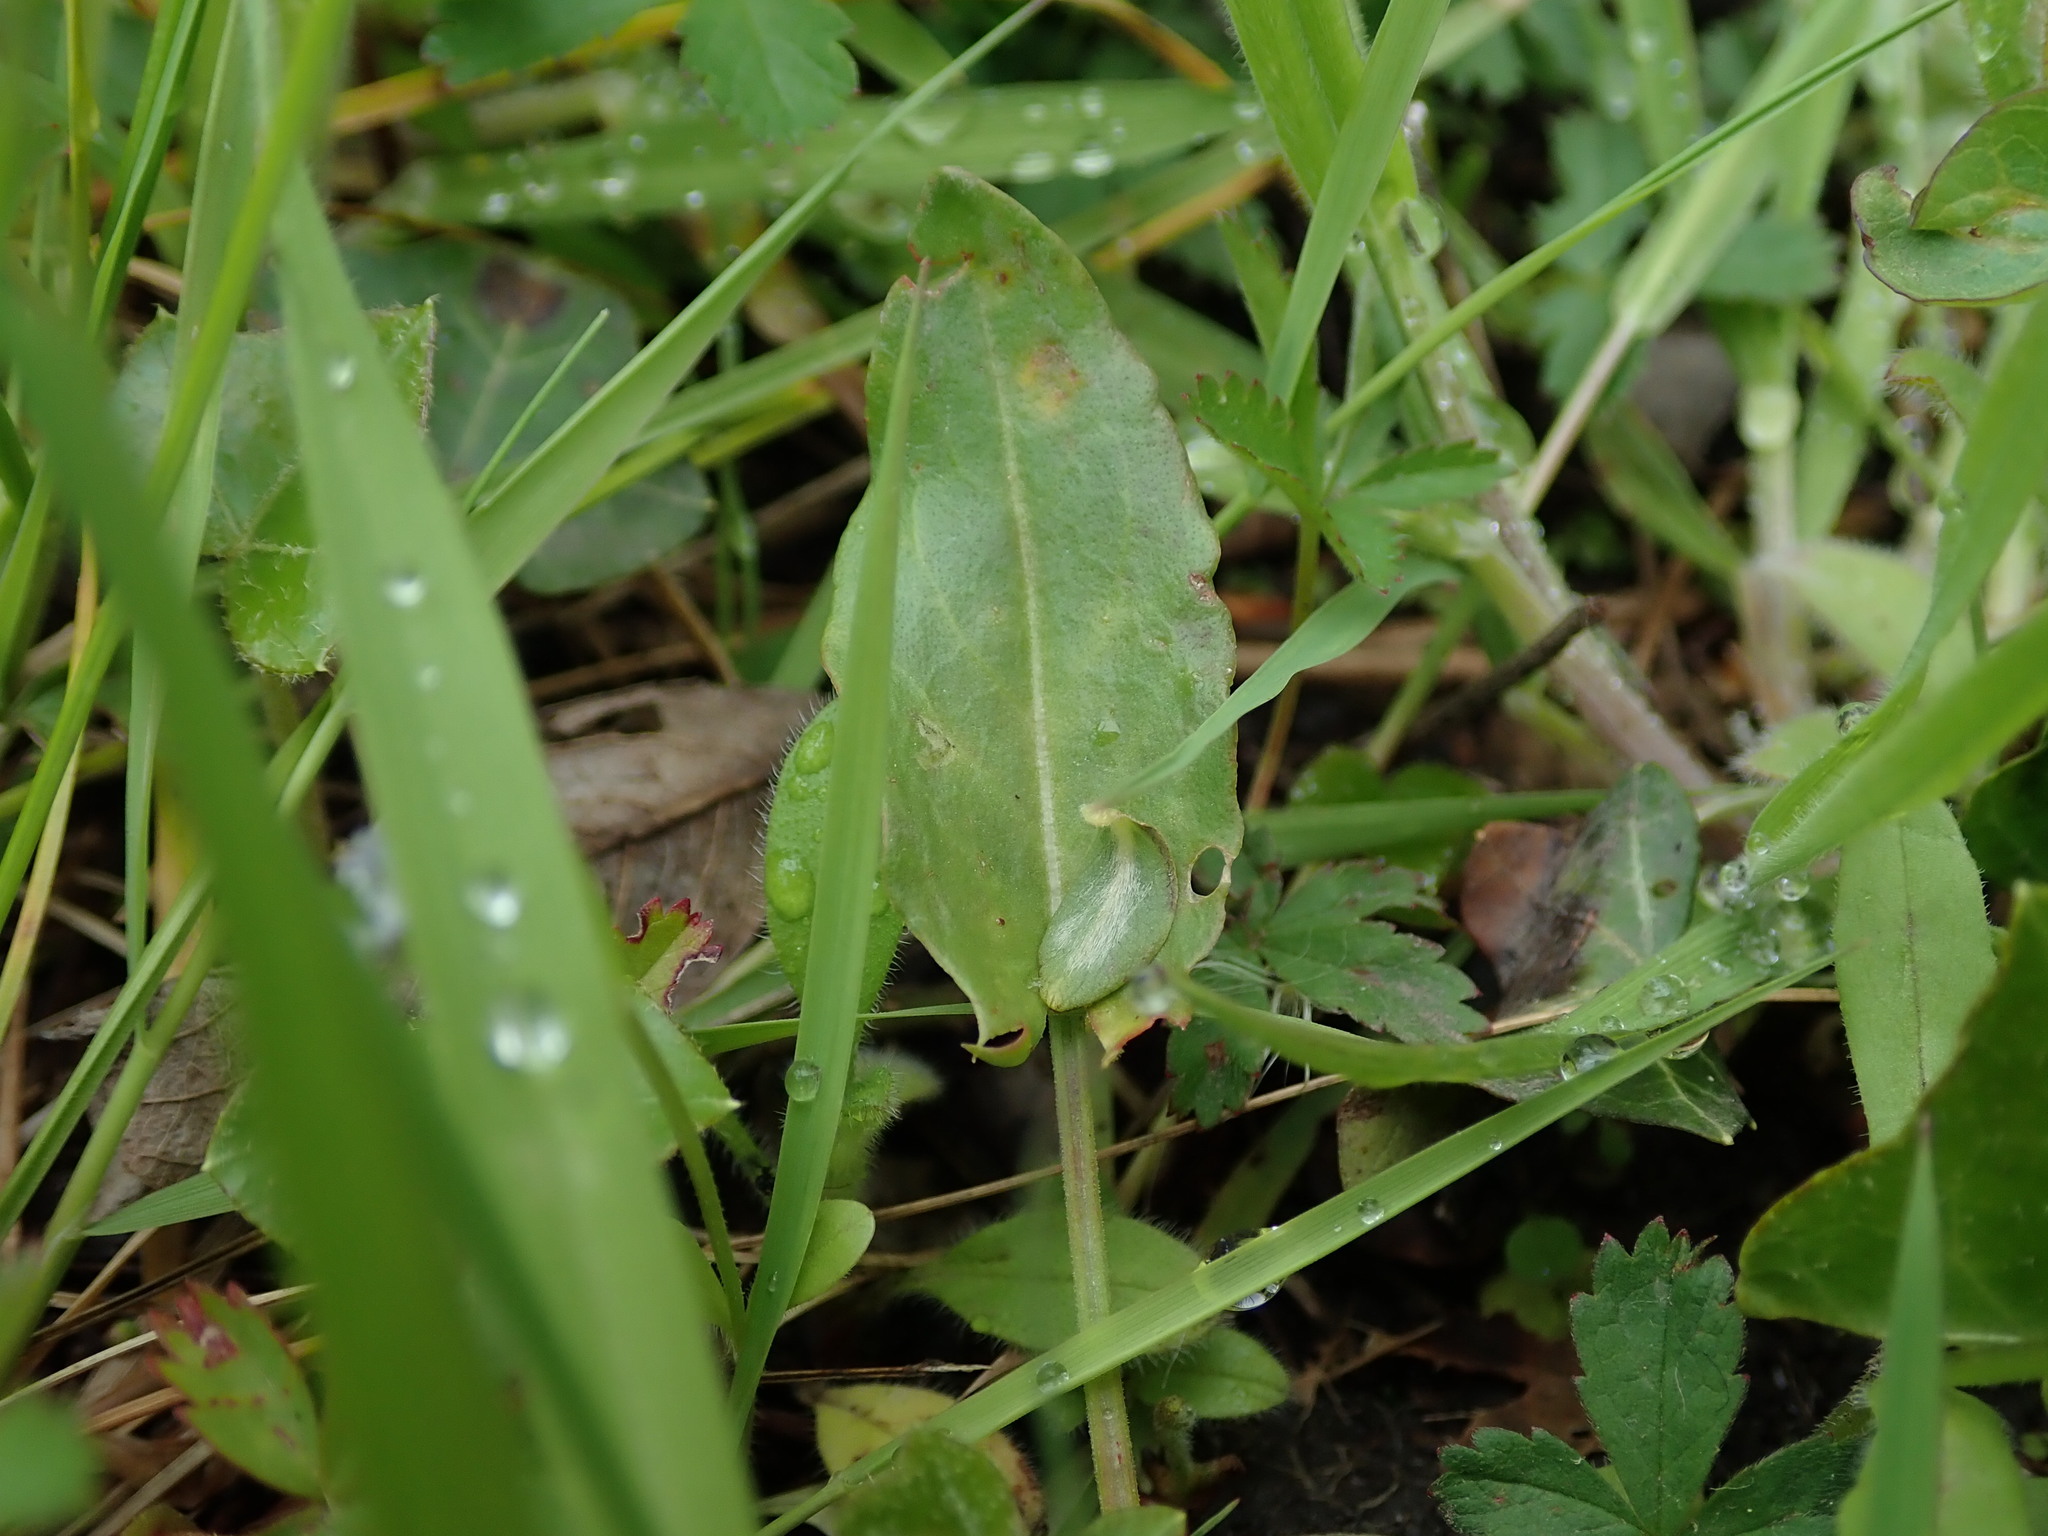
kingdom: Plantae
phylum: Tracheophyta
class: Magnoliopsida
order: Caryophyllales
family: Polygonaceae
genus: Rumex
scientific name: Rumex acetosa
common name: Garden sorrel
